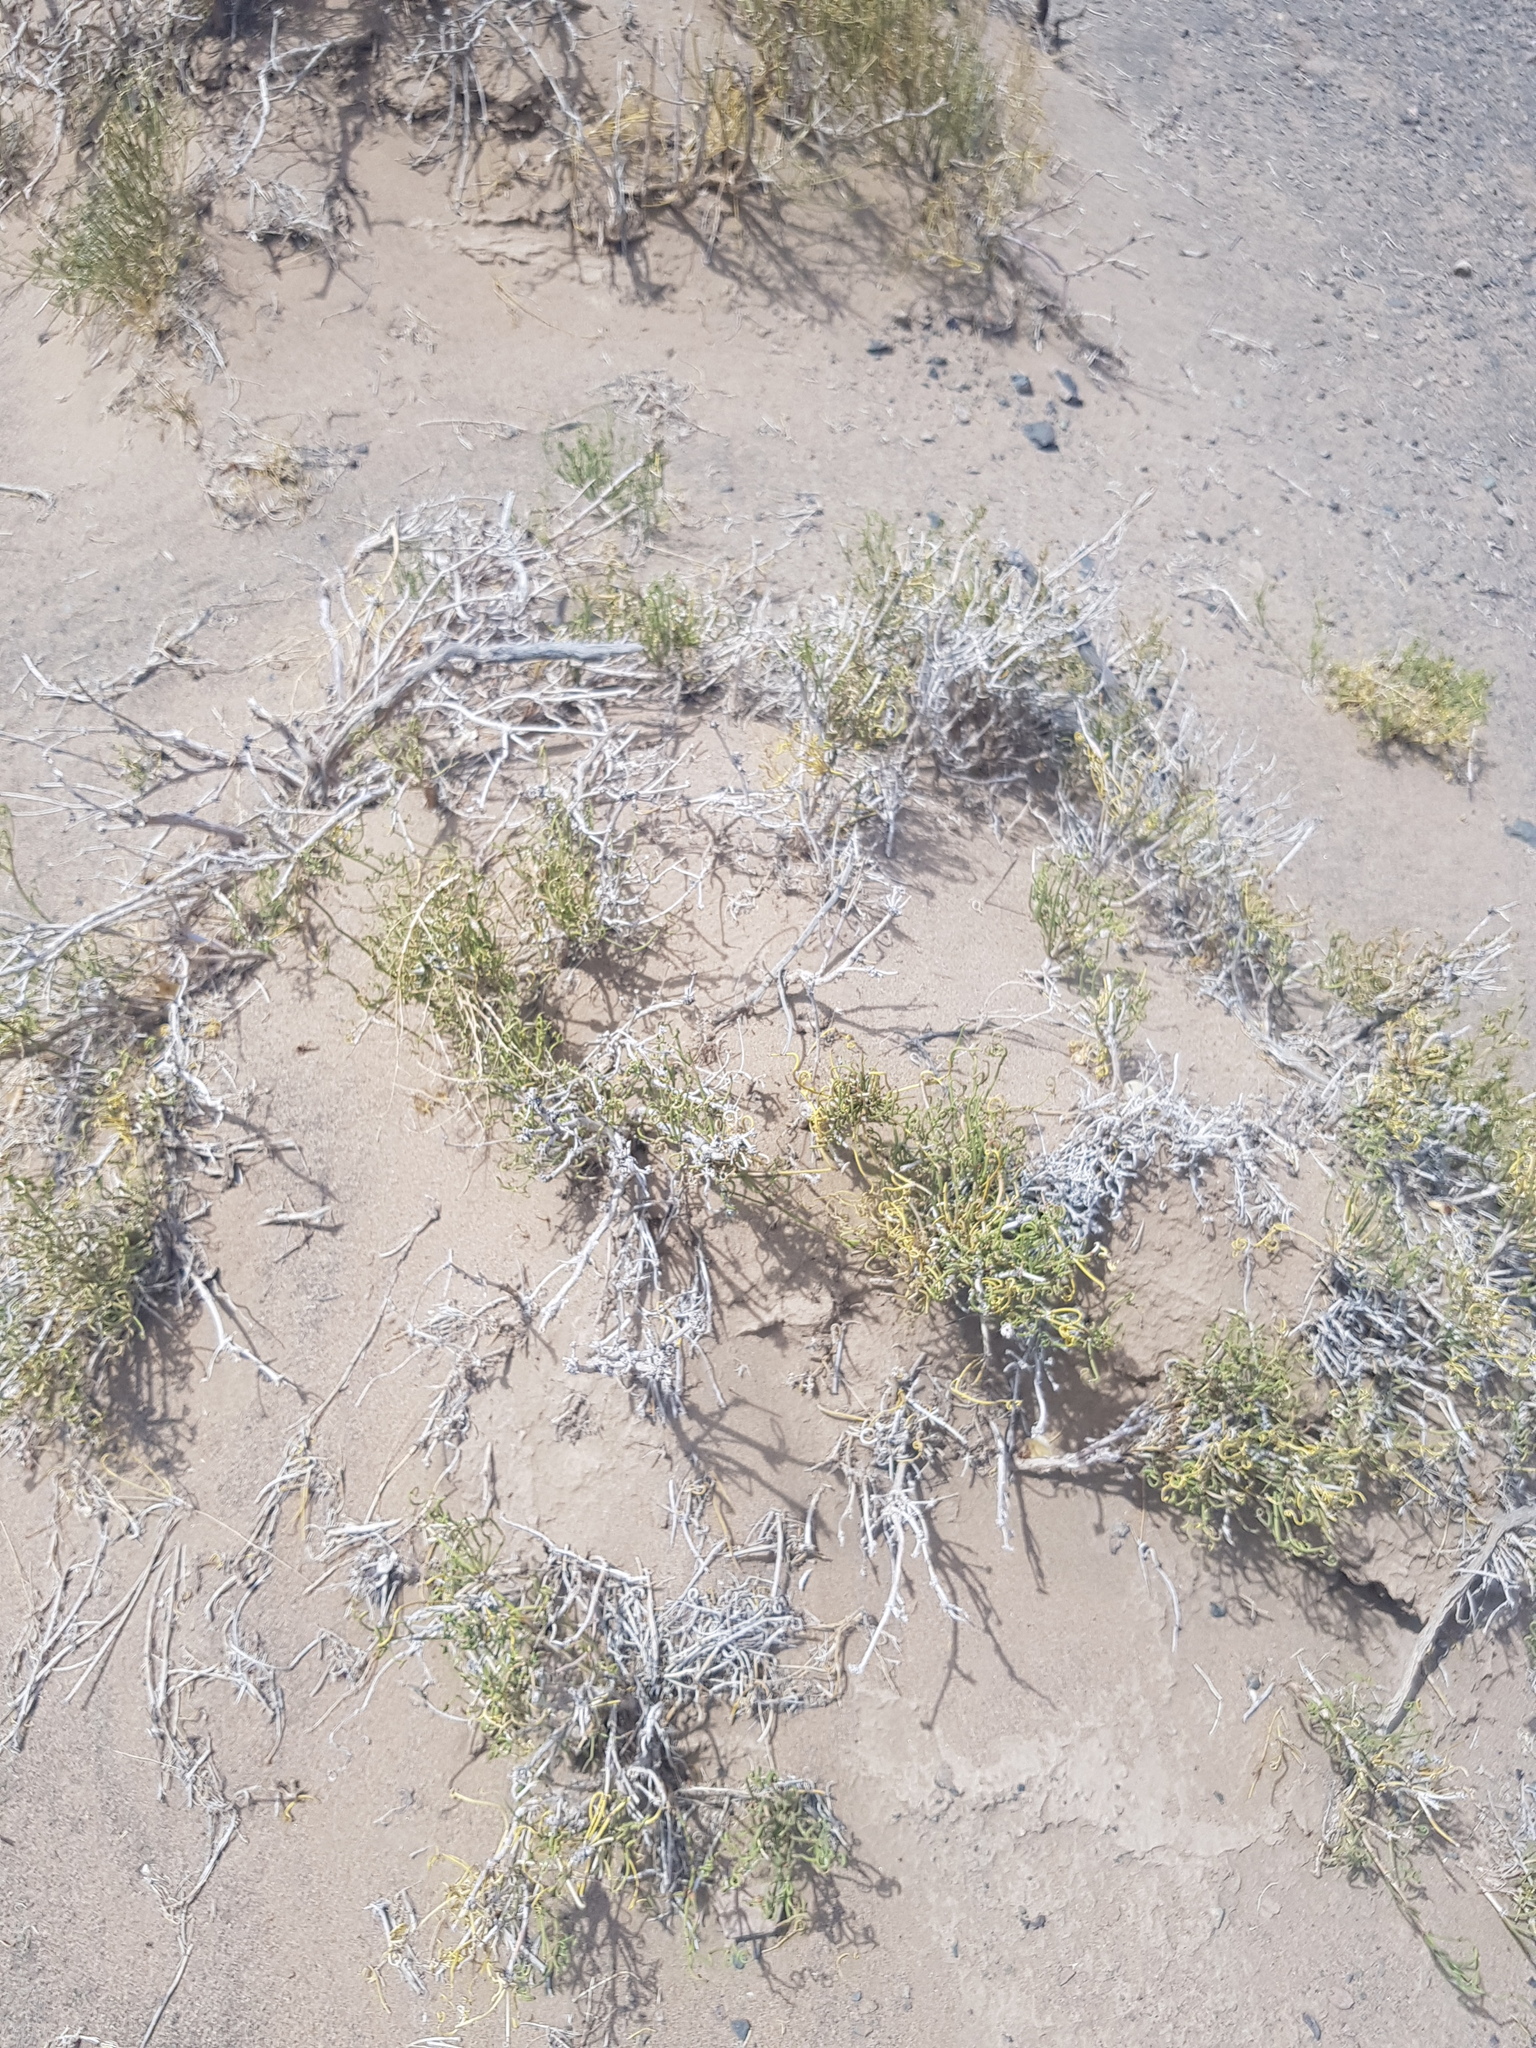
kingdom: Plantae
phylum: Tracheophyta
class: Gnetopsida
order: Ephedrales
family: Ephedraceae
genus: Ephedra
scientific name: Ephedra przewalskii
